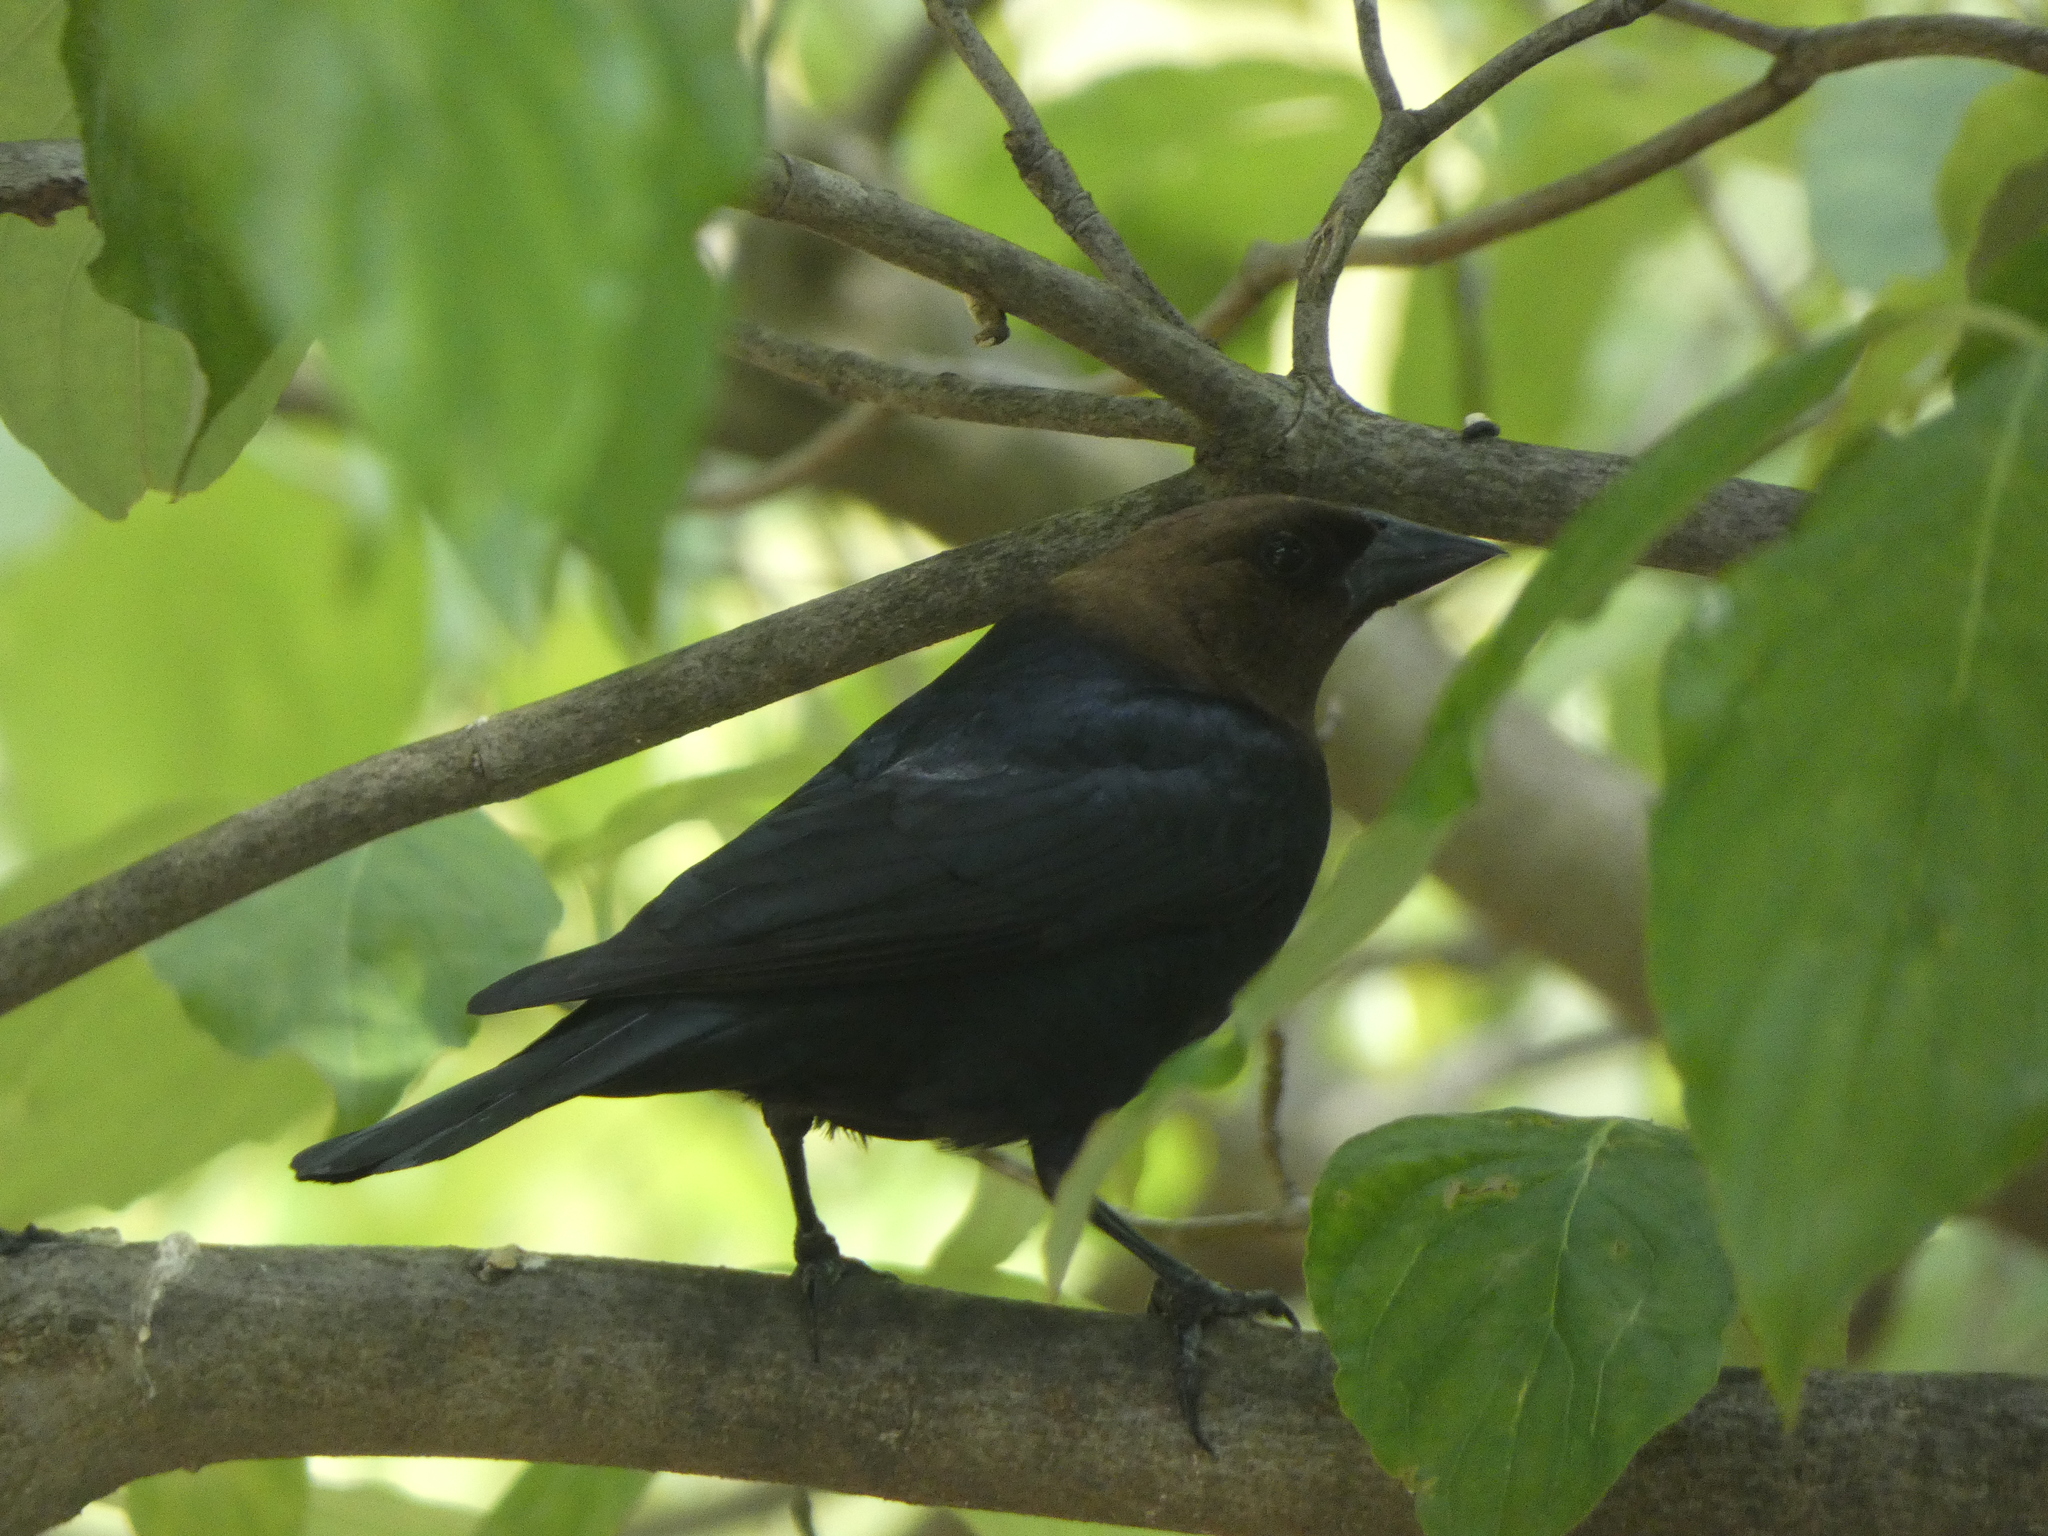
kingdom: Animalia
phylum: Chordata
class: Aves
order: Passeriformes
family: Icteridae
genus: Molothrus
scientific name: Molothrus ater
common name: Brown-headed cowbird
